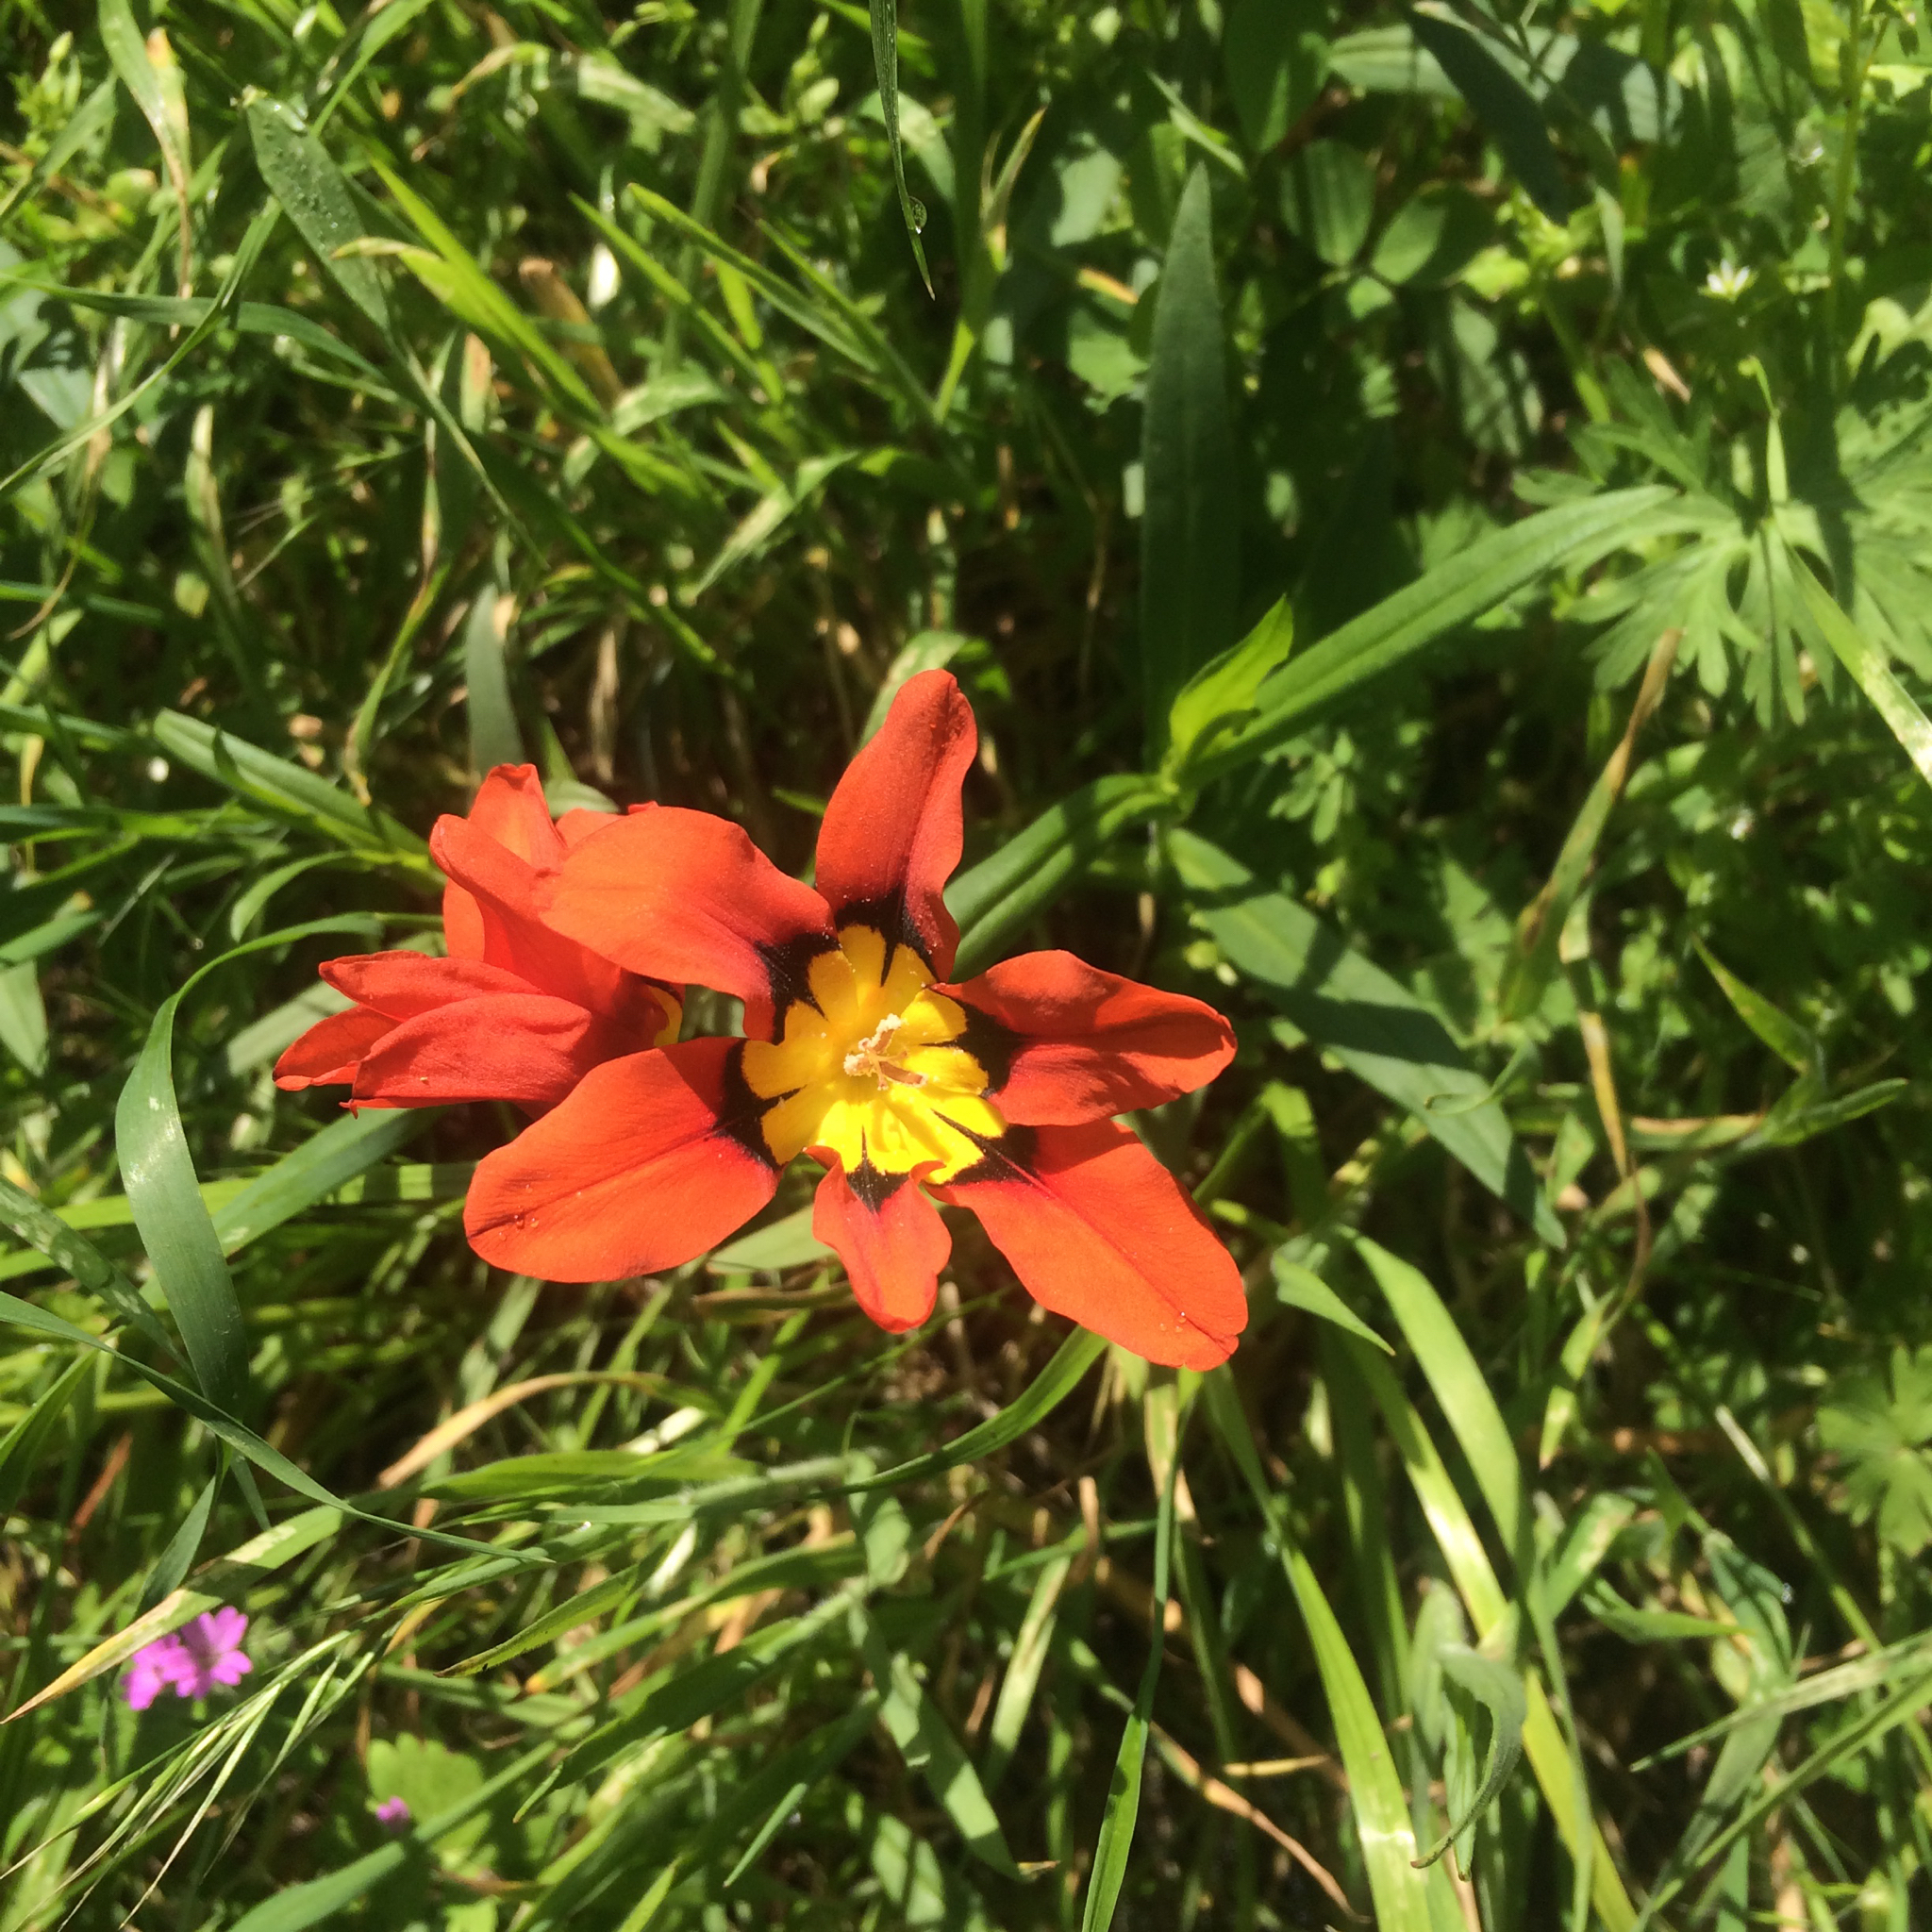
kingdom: Plantae
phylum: Tracheophyta
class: Liliopsida
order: Asparagales
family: Iridaceae
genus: Sparaxis
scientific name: Sparaxis tricolor
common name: Wandflower
